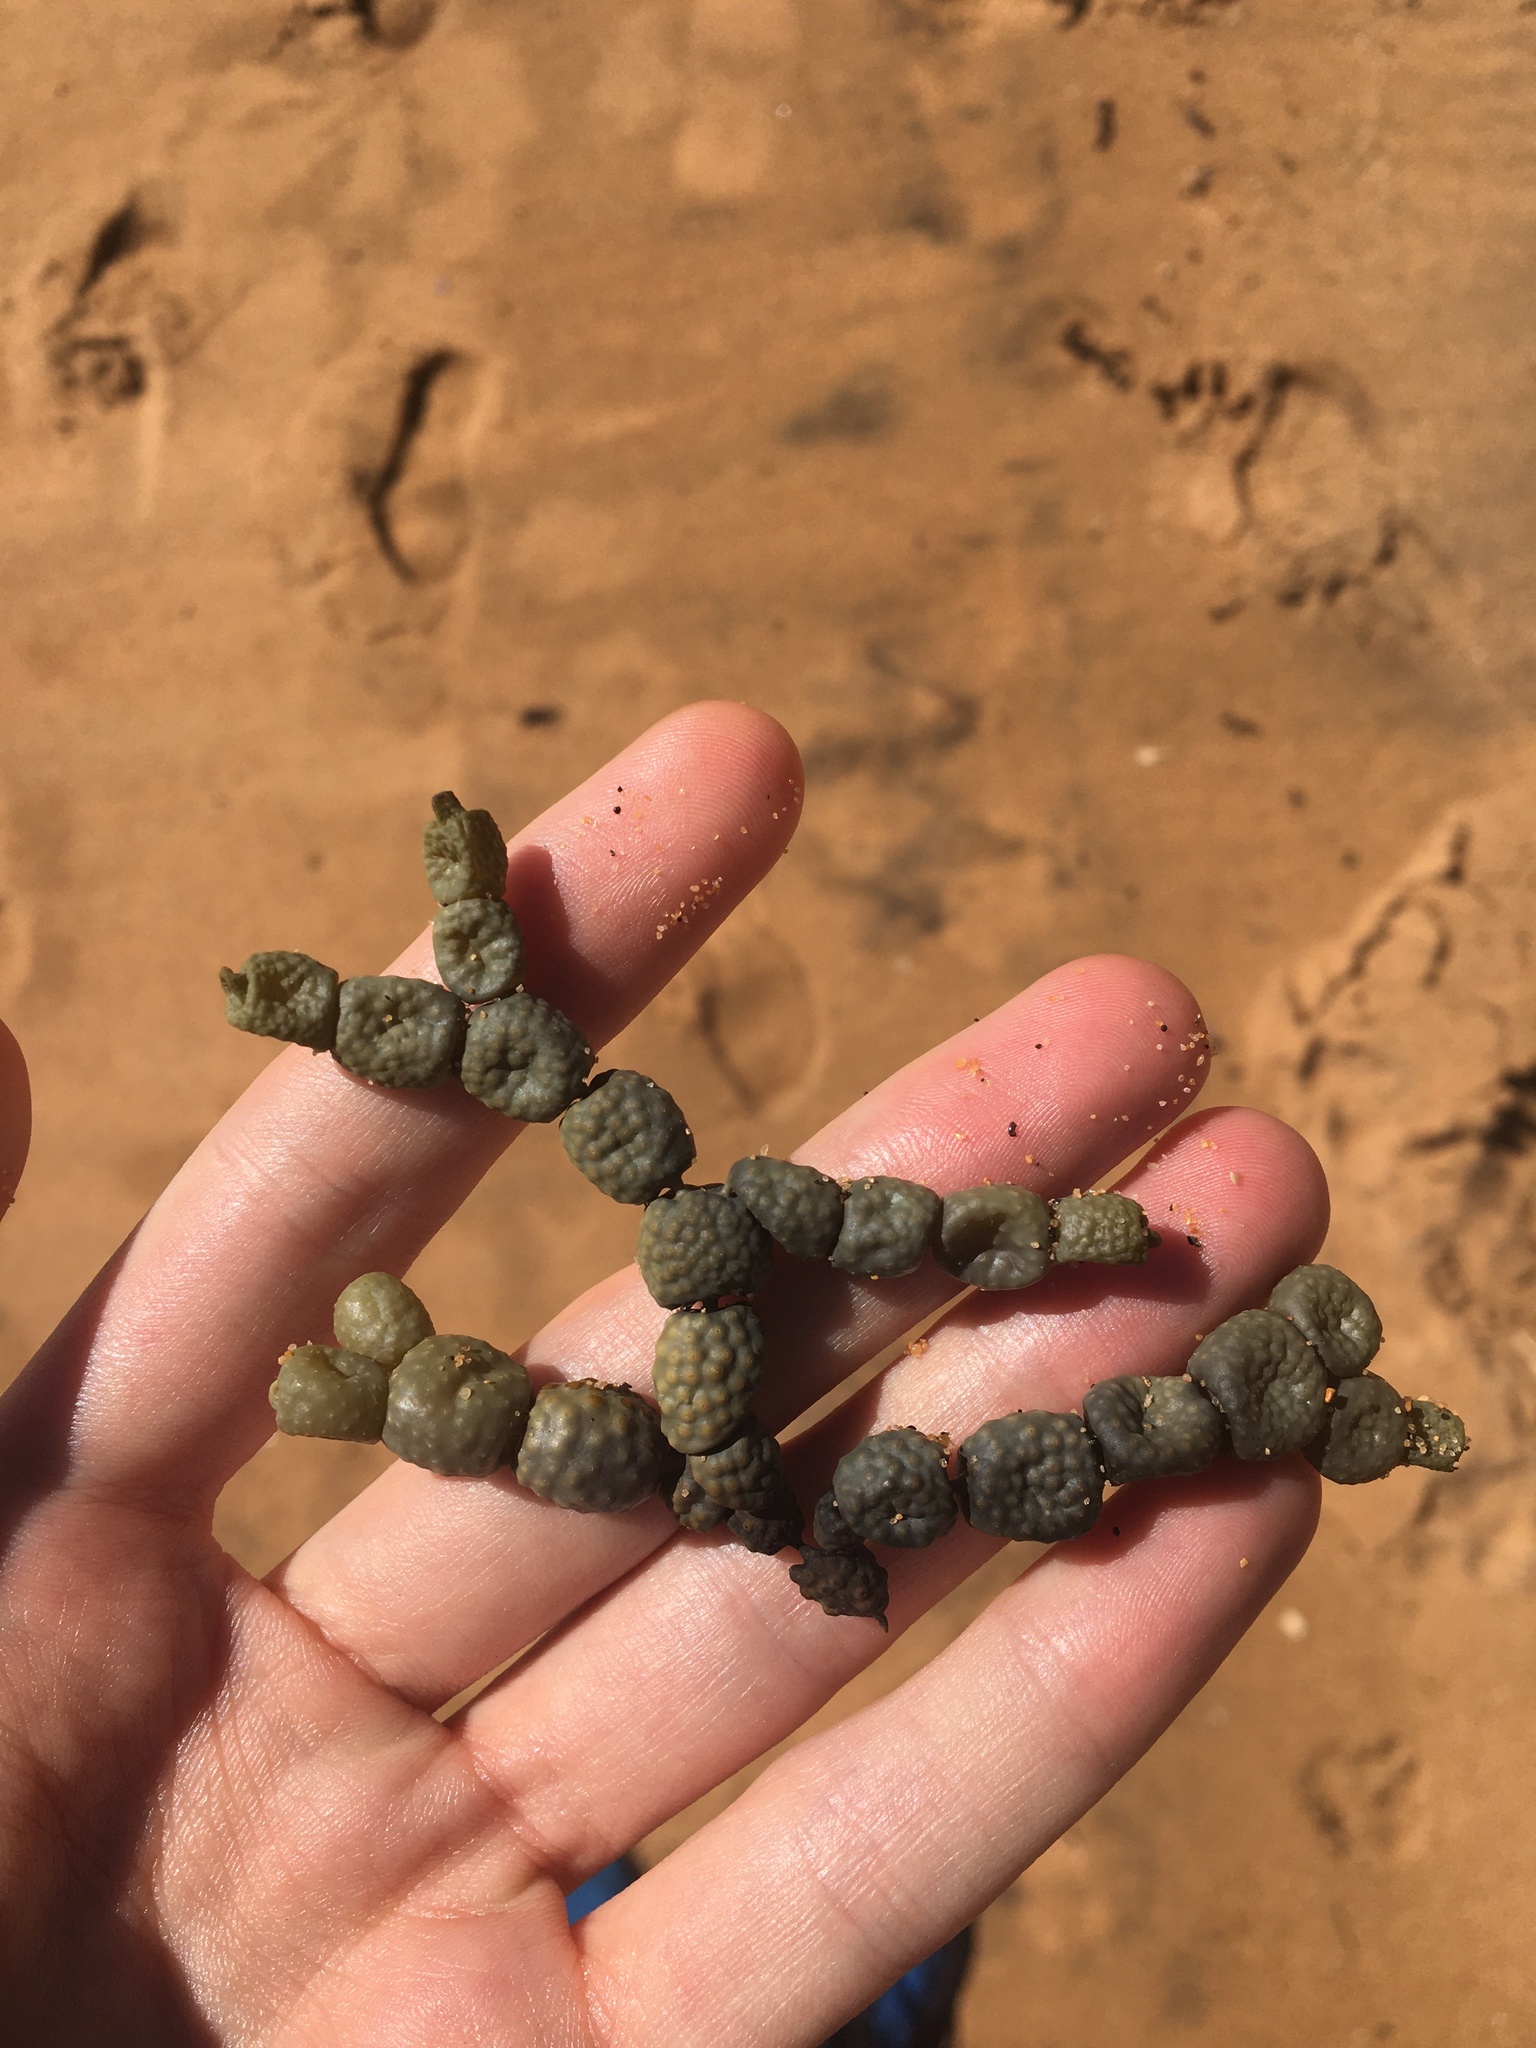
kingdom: Chromista
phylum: Ochrophyta
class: Phaeophyceae
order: Fucales
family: Hormosiraceae
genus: Hormosira
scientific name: Hormosira banksii
